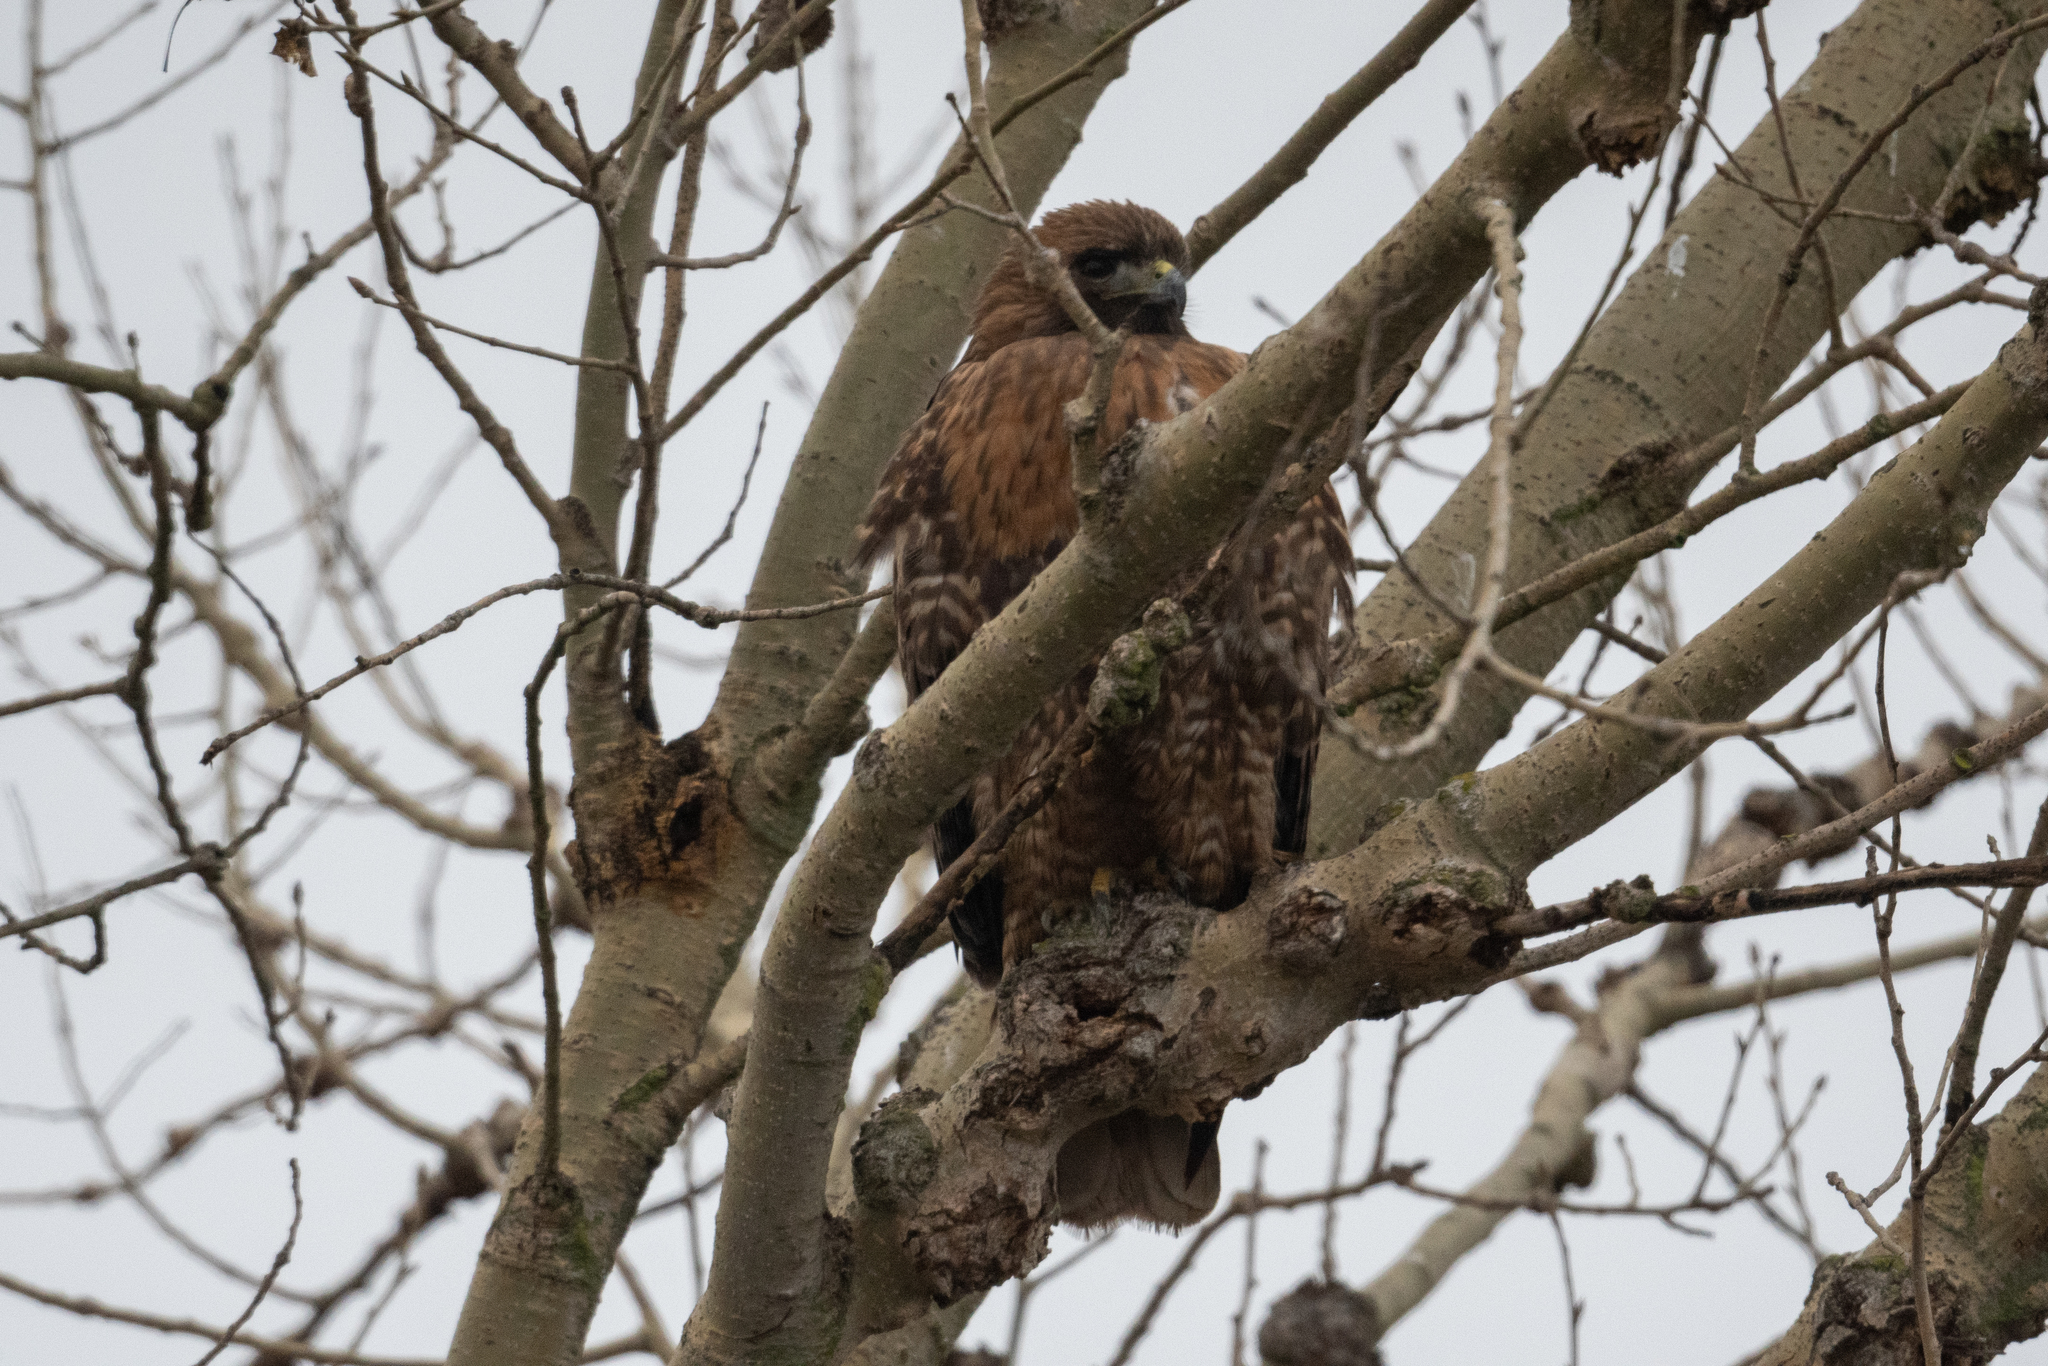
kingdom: Animalia
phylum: Chordata
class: Aves
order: Accipitriformes
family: Accipitridae
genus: Buteo
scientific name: Buteo jamaicensis
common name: Red-tailed hawk
